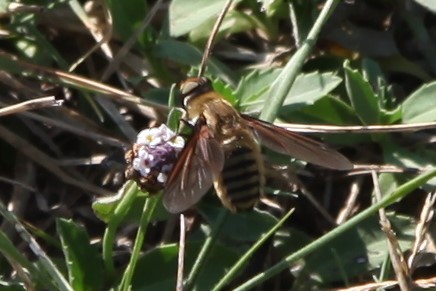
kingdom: Animalia
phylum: Arthropoda
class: Insecta
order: Diptera
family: Bombyliidae
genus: Poecilanthrax
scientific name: Poecilanthrax lucifer
